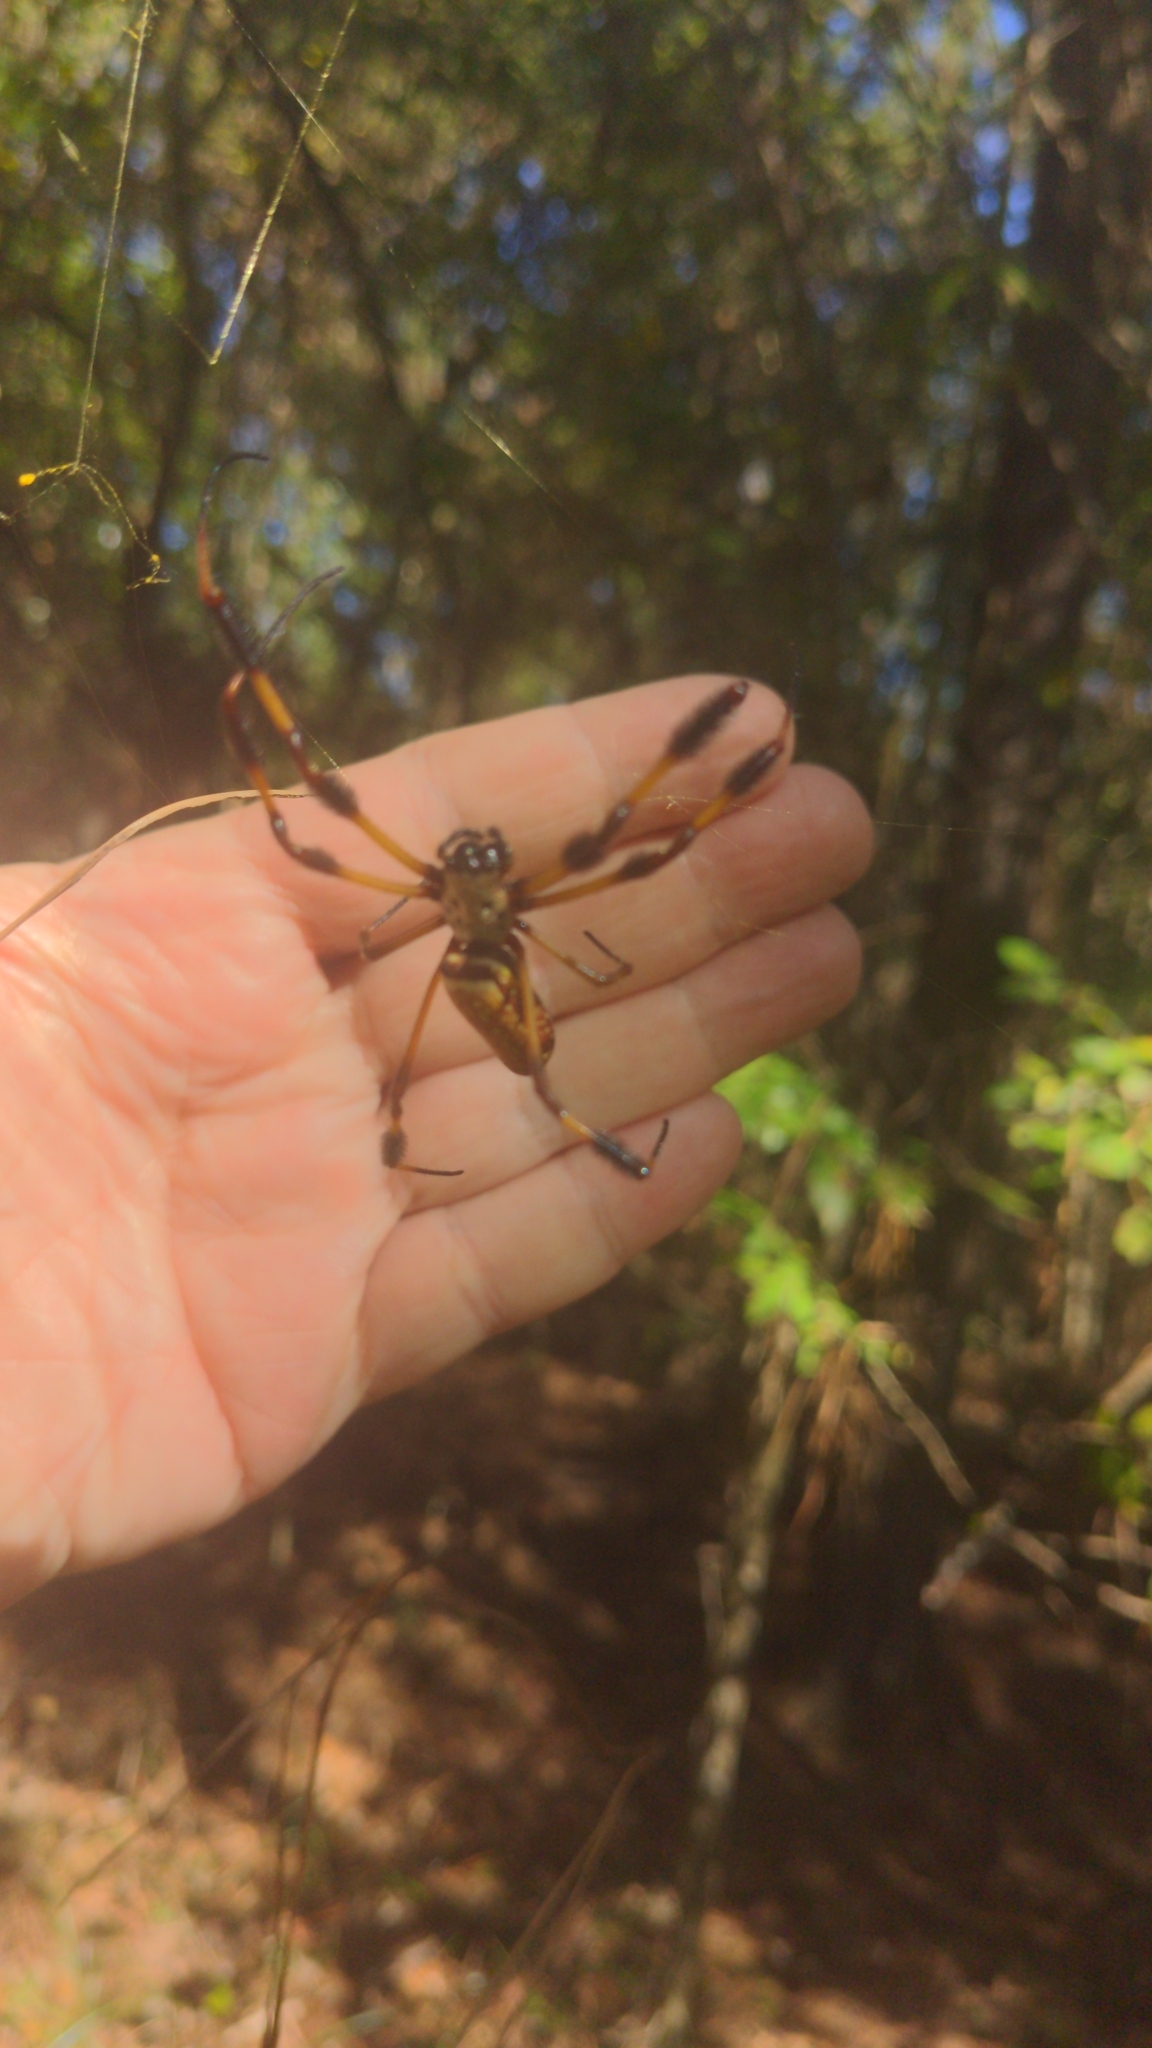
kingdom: Animalia
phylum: Arthropoda
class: Arachnida
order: Araneae
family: Araneidae
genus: Trichonephila
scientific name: Trichonephila clavipes
